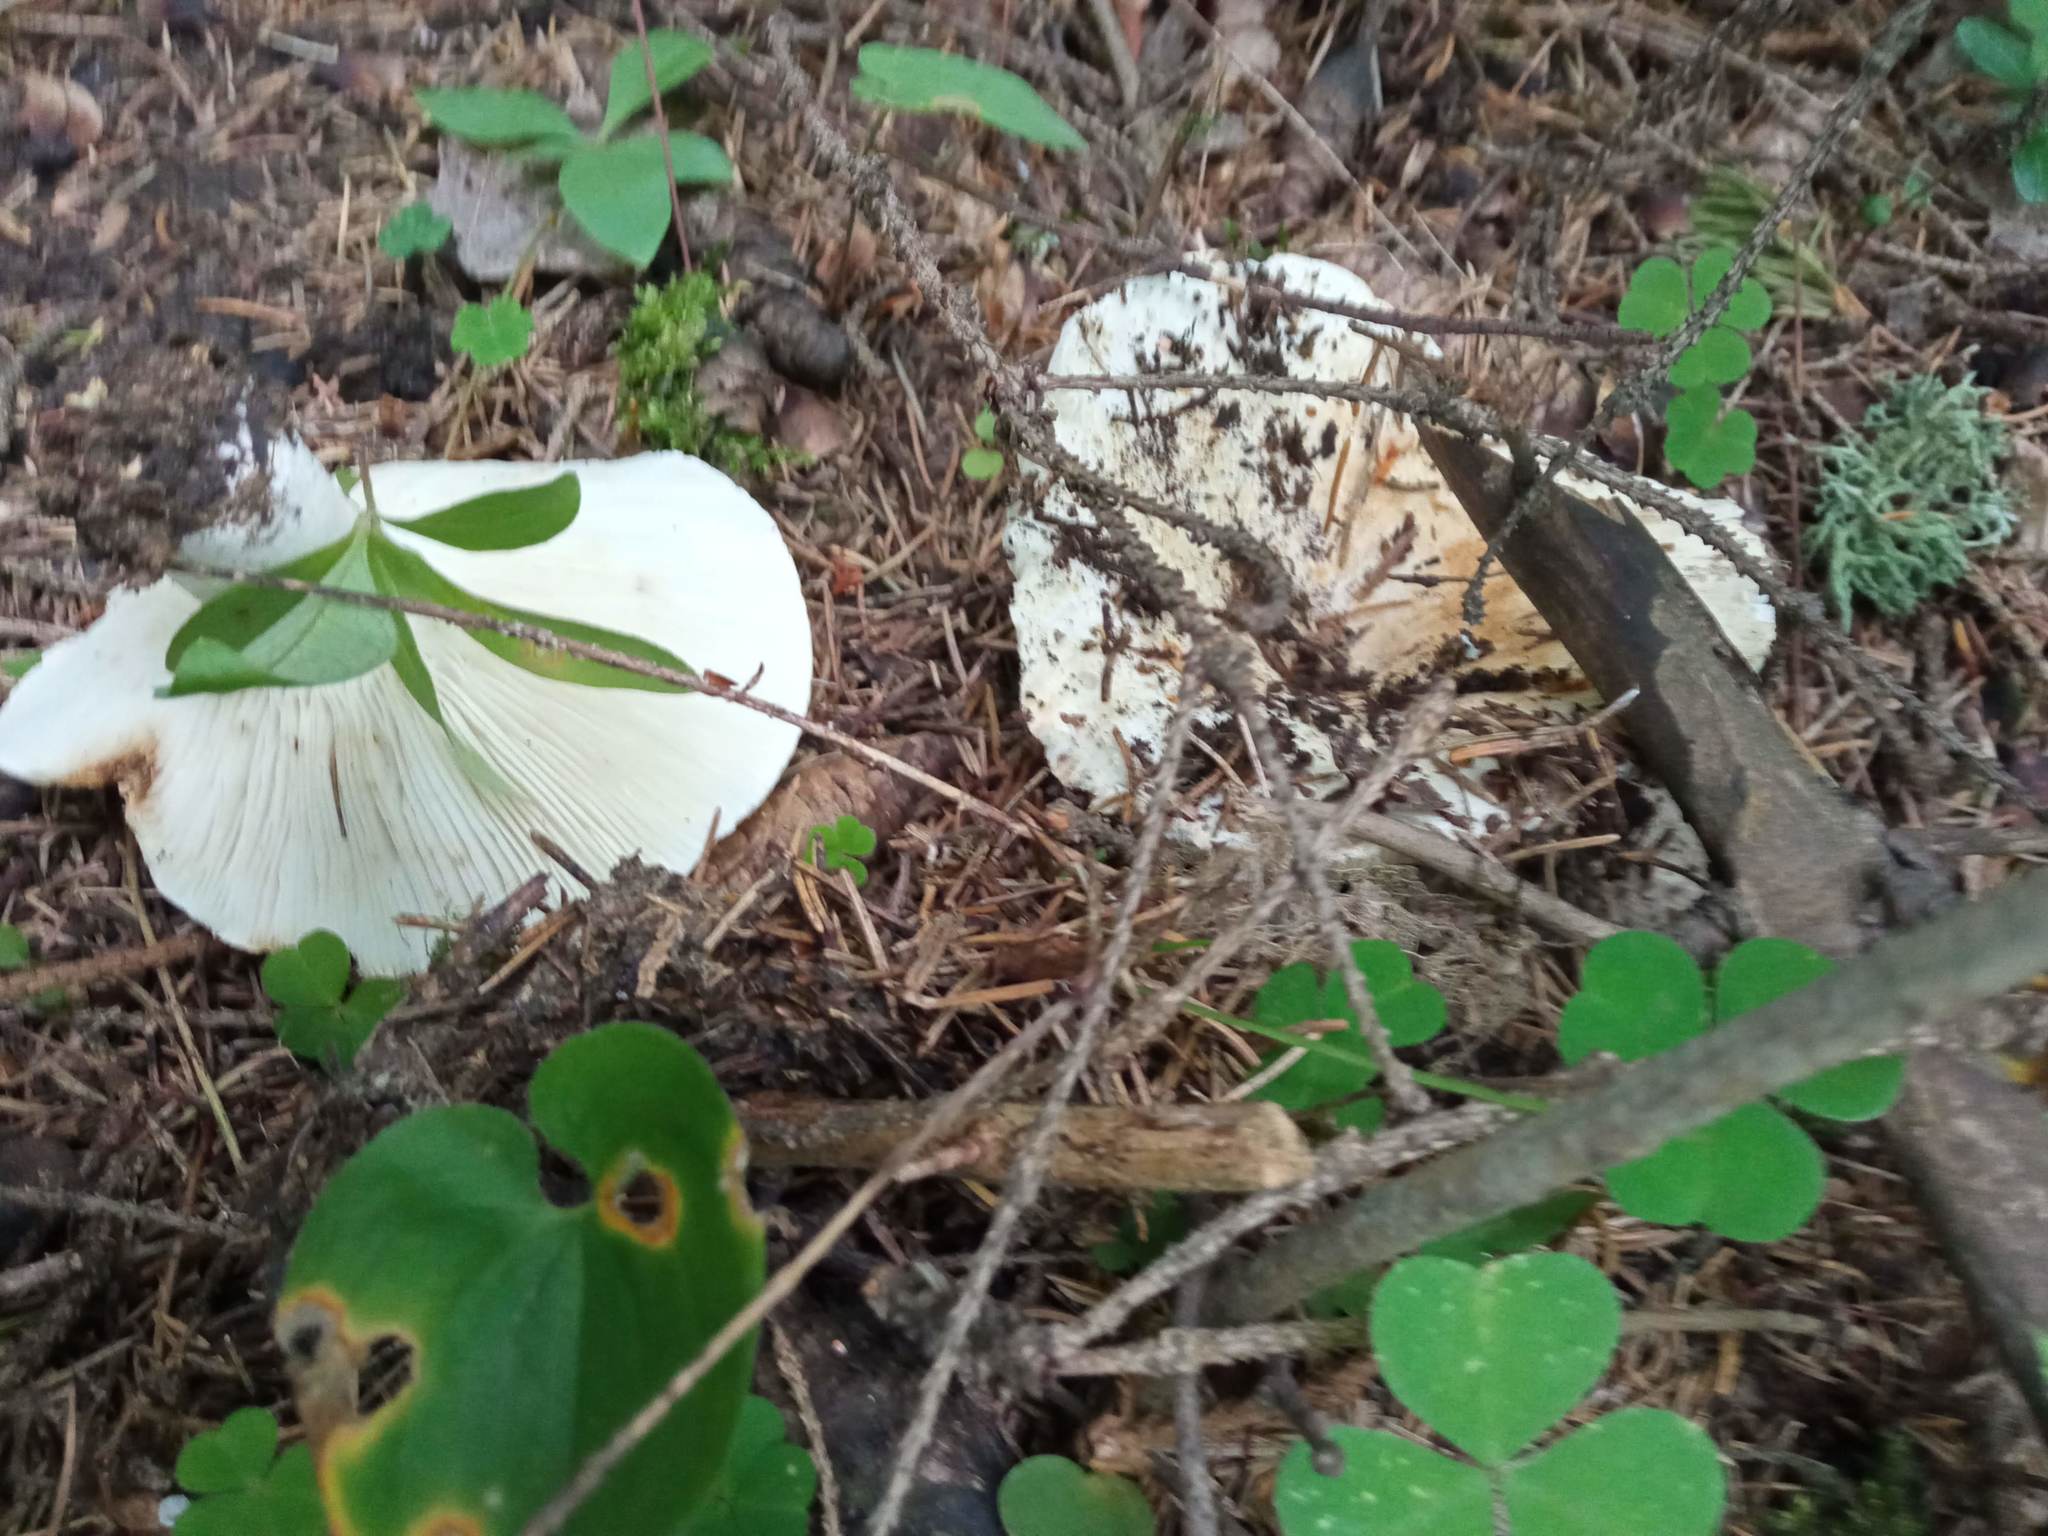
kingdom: Fungi
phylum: Basidiomycota
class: Agaricomycetes
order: Russulales
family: Russulaceae
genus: Russula
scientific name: Russula delica
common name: Milk white brittlegill
